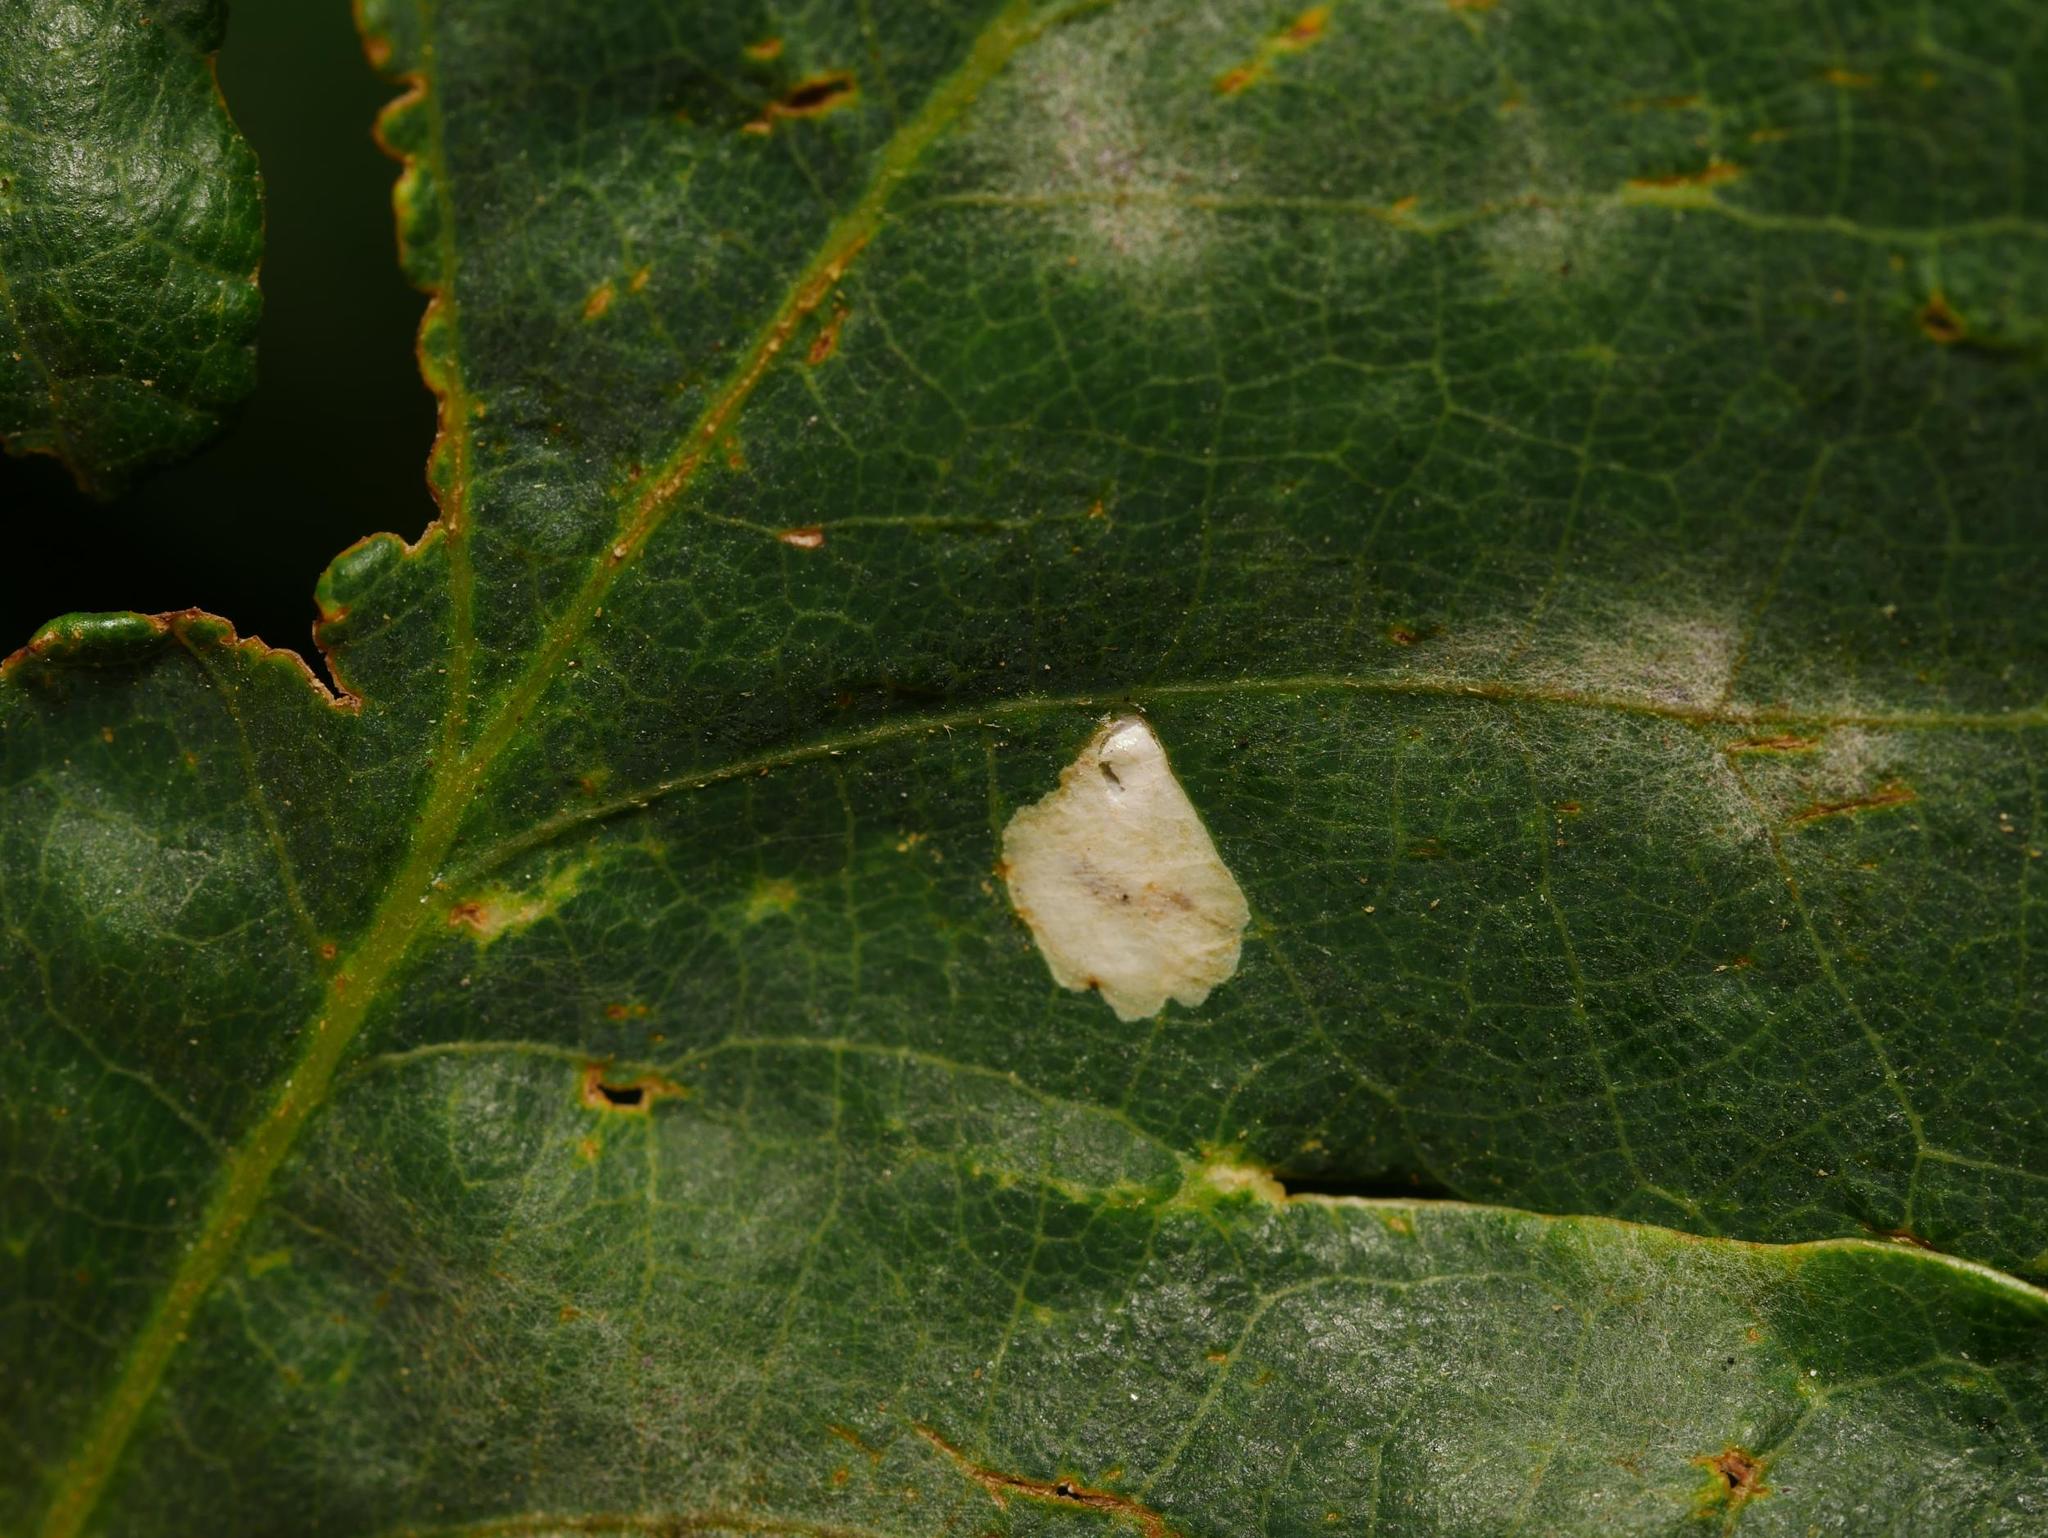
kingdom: Animalia
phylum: Arthropoda
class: Insecta
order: Lepidoptera
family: Tischeriidae
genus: Tischeria
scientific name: Tischeria ekebladella
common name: Oak carl
